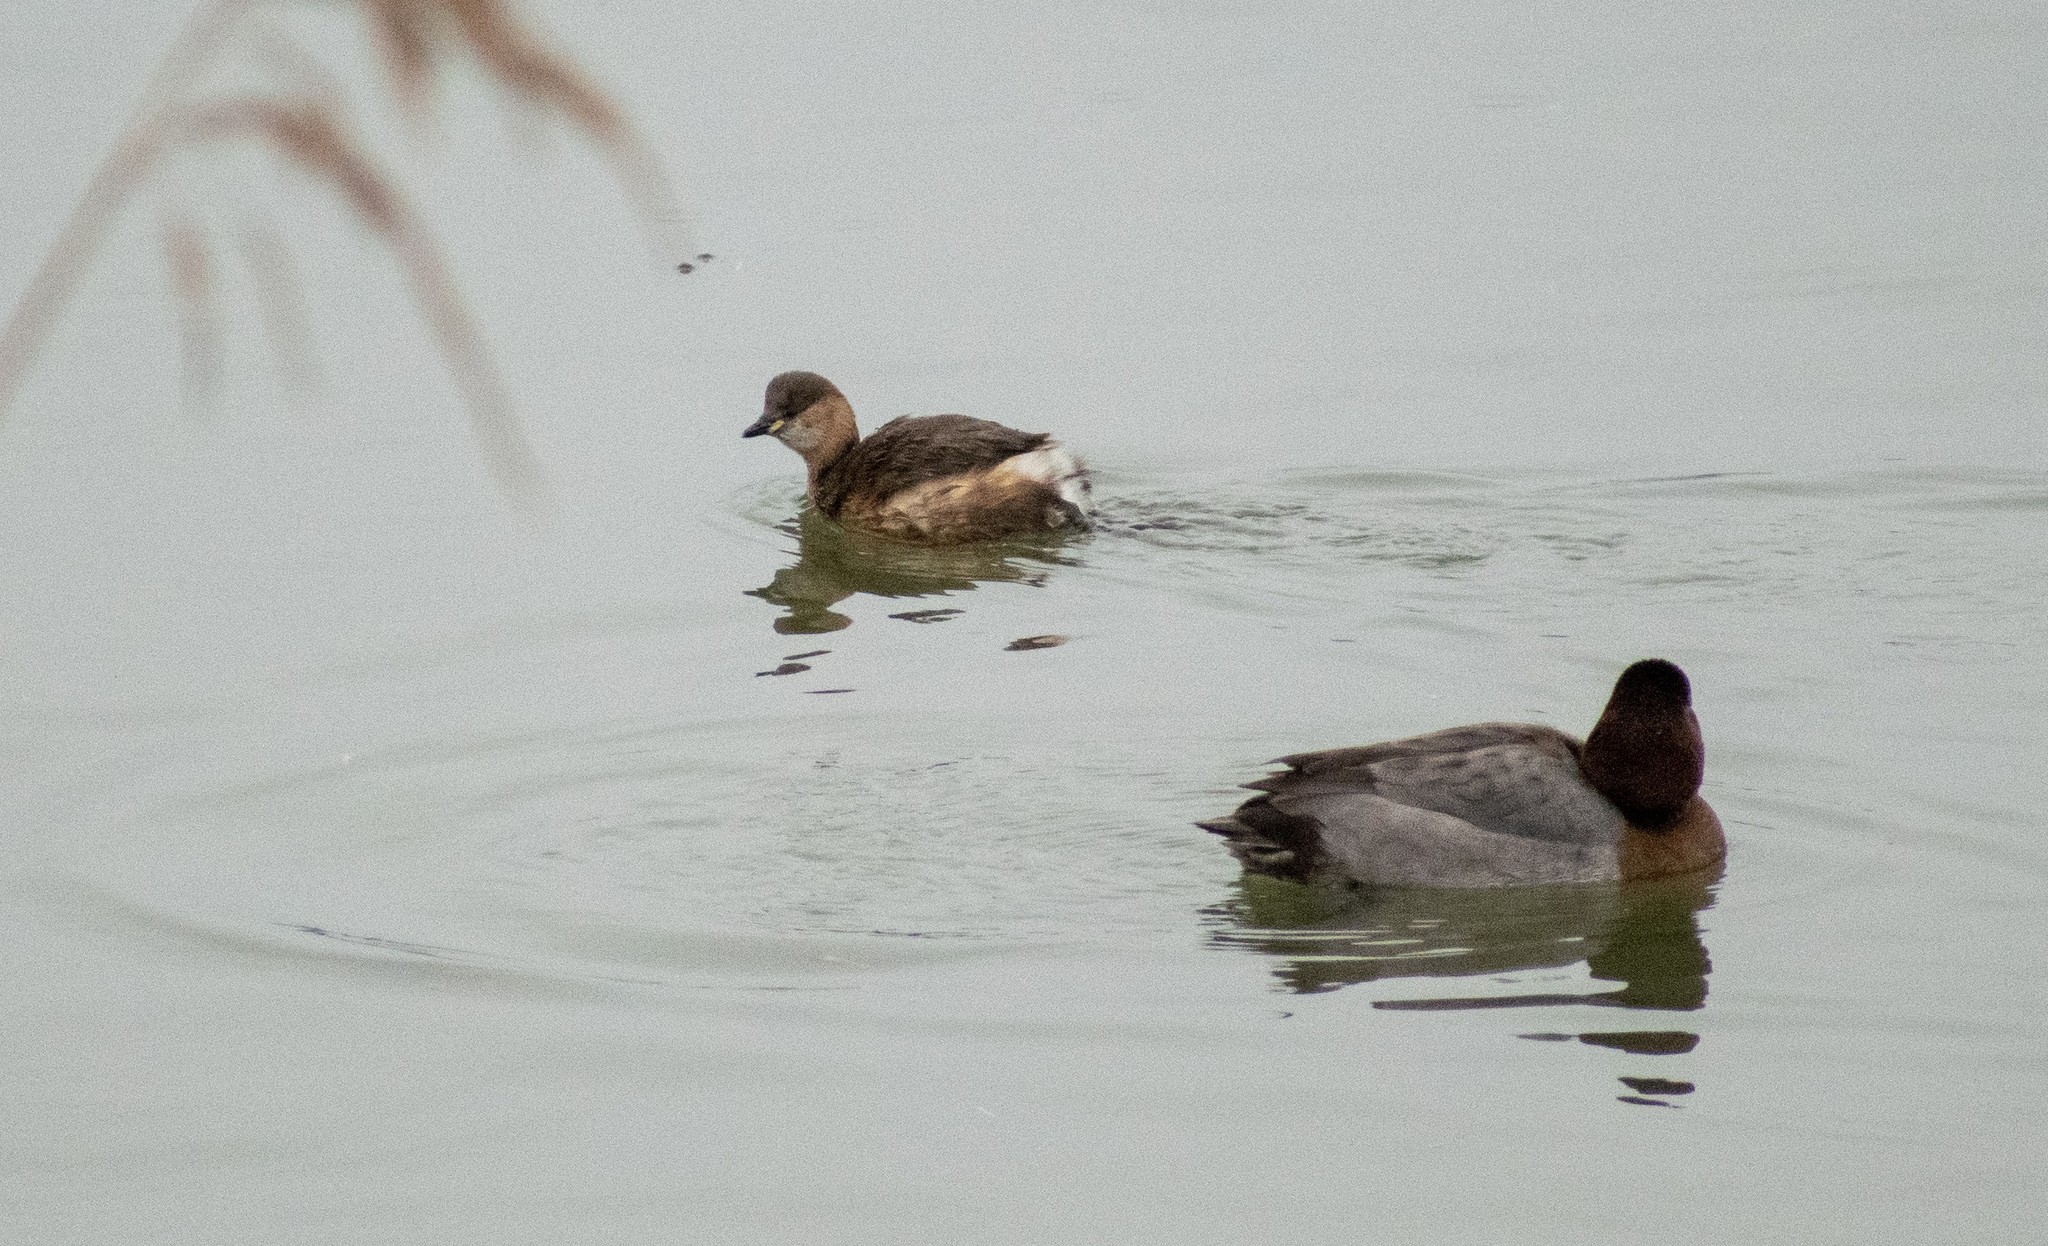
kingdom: Animalia
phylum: Chordata
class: Aves
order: Podicipediformes
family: Podicipedidae
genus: Tachybaptus
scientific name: Tachybaptus ruficollis
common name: Little grebe
